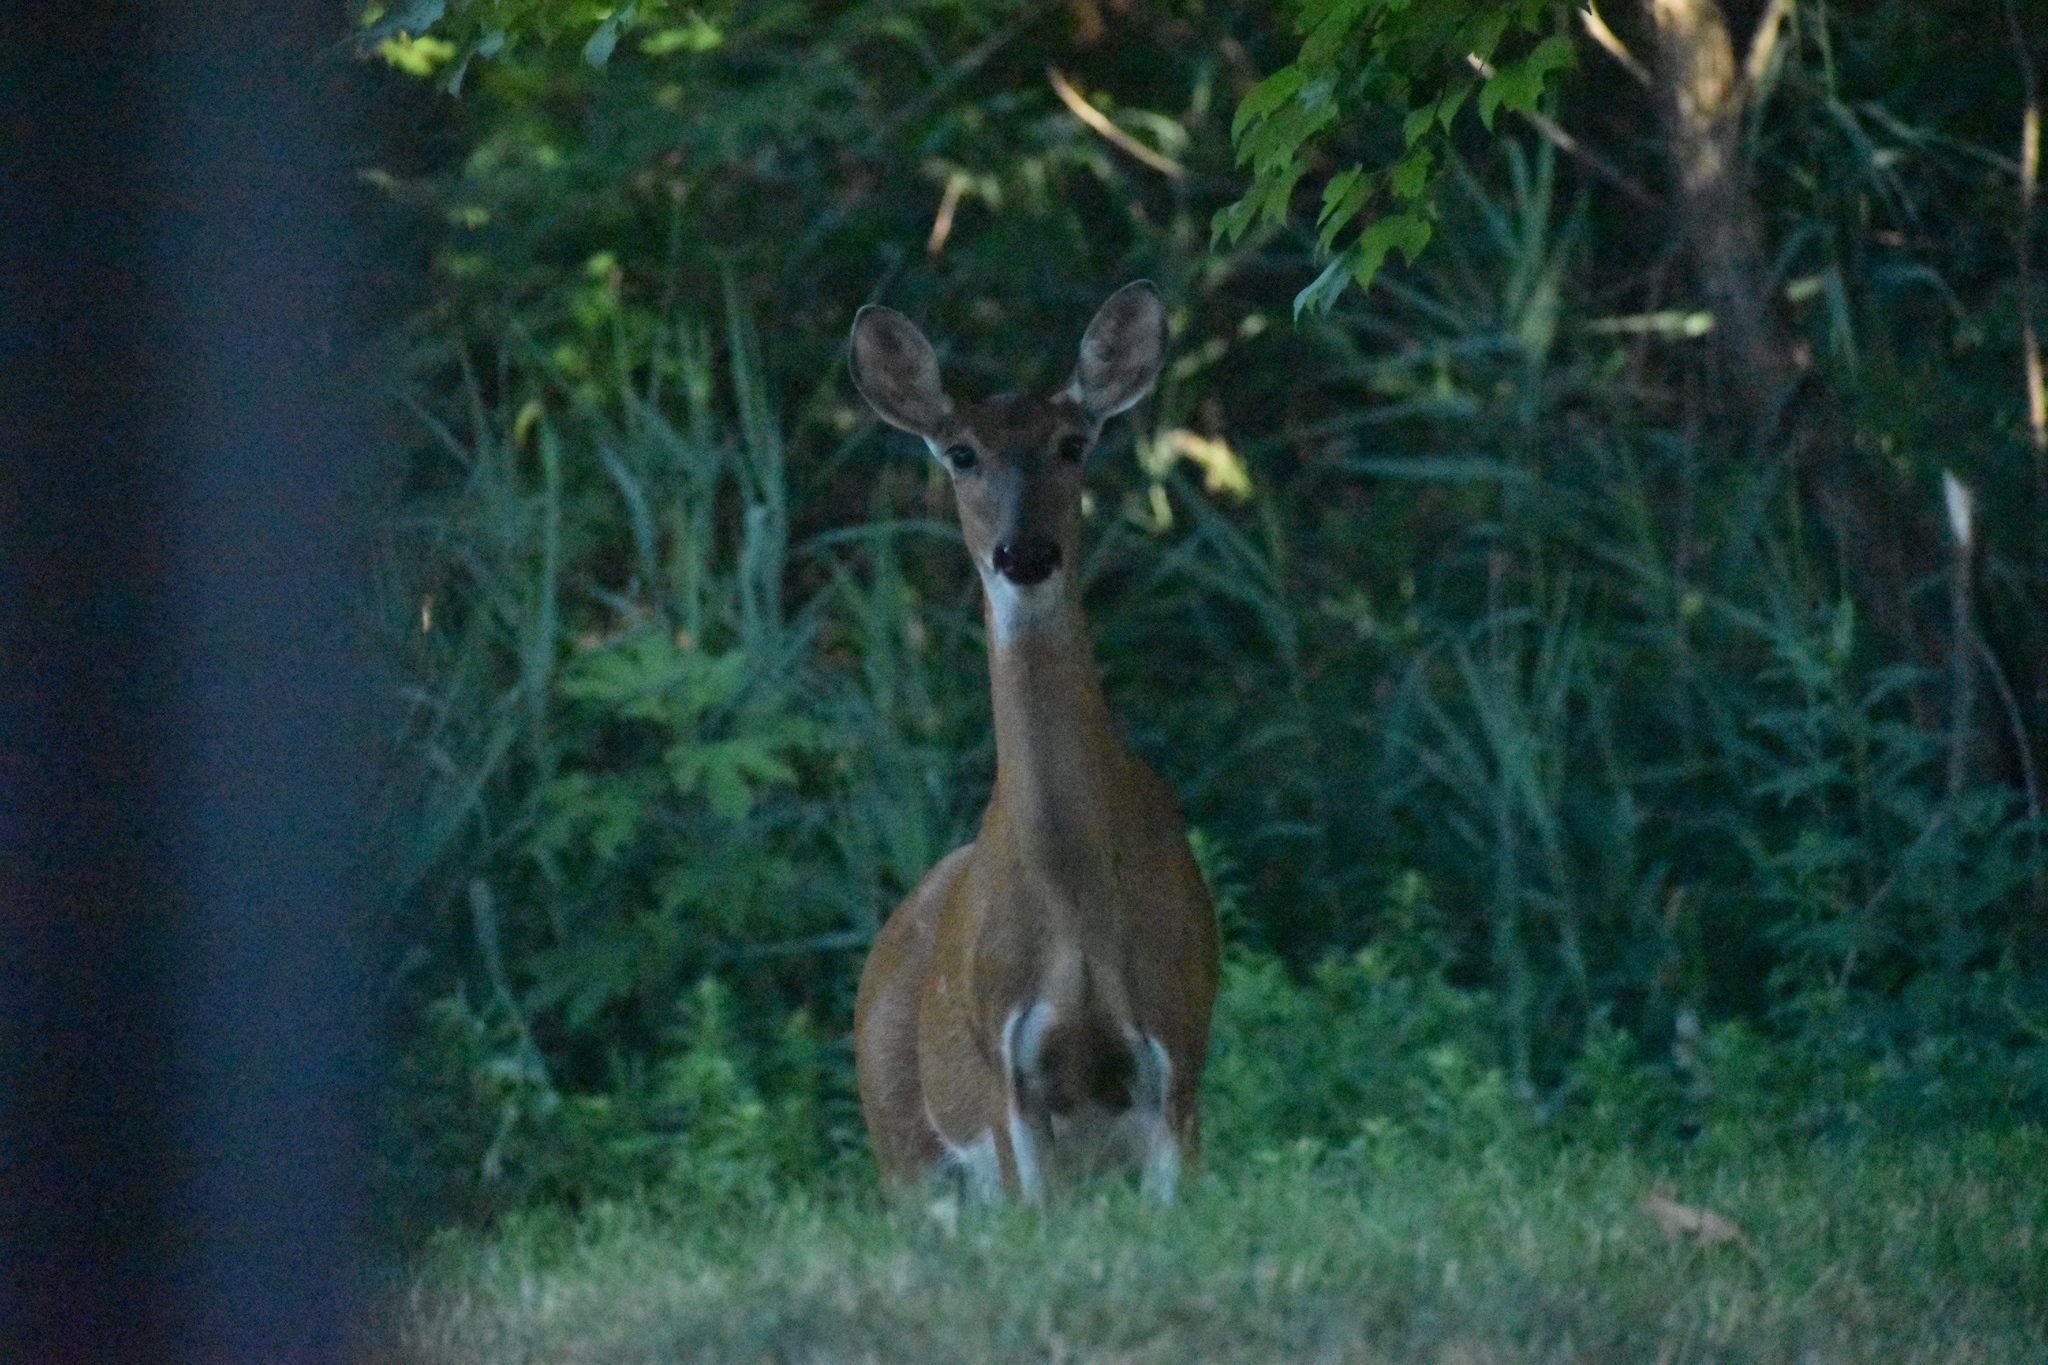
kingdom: Animalia
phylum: Chordata
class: Mammalia
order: Artiodactyla
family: Cervidae
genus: Odocoileus
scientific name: Odocoileus virginianus
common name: White-tailed deer
